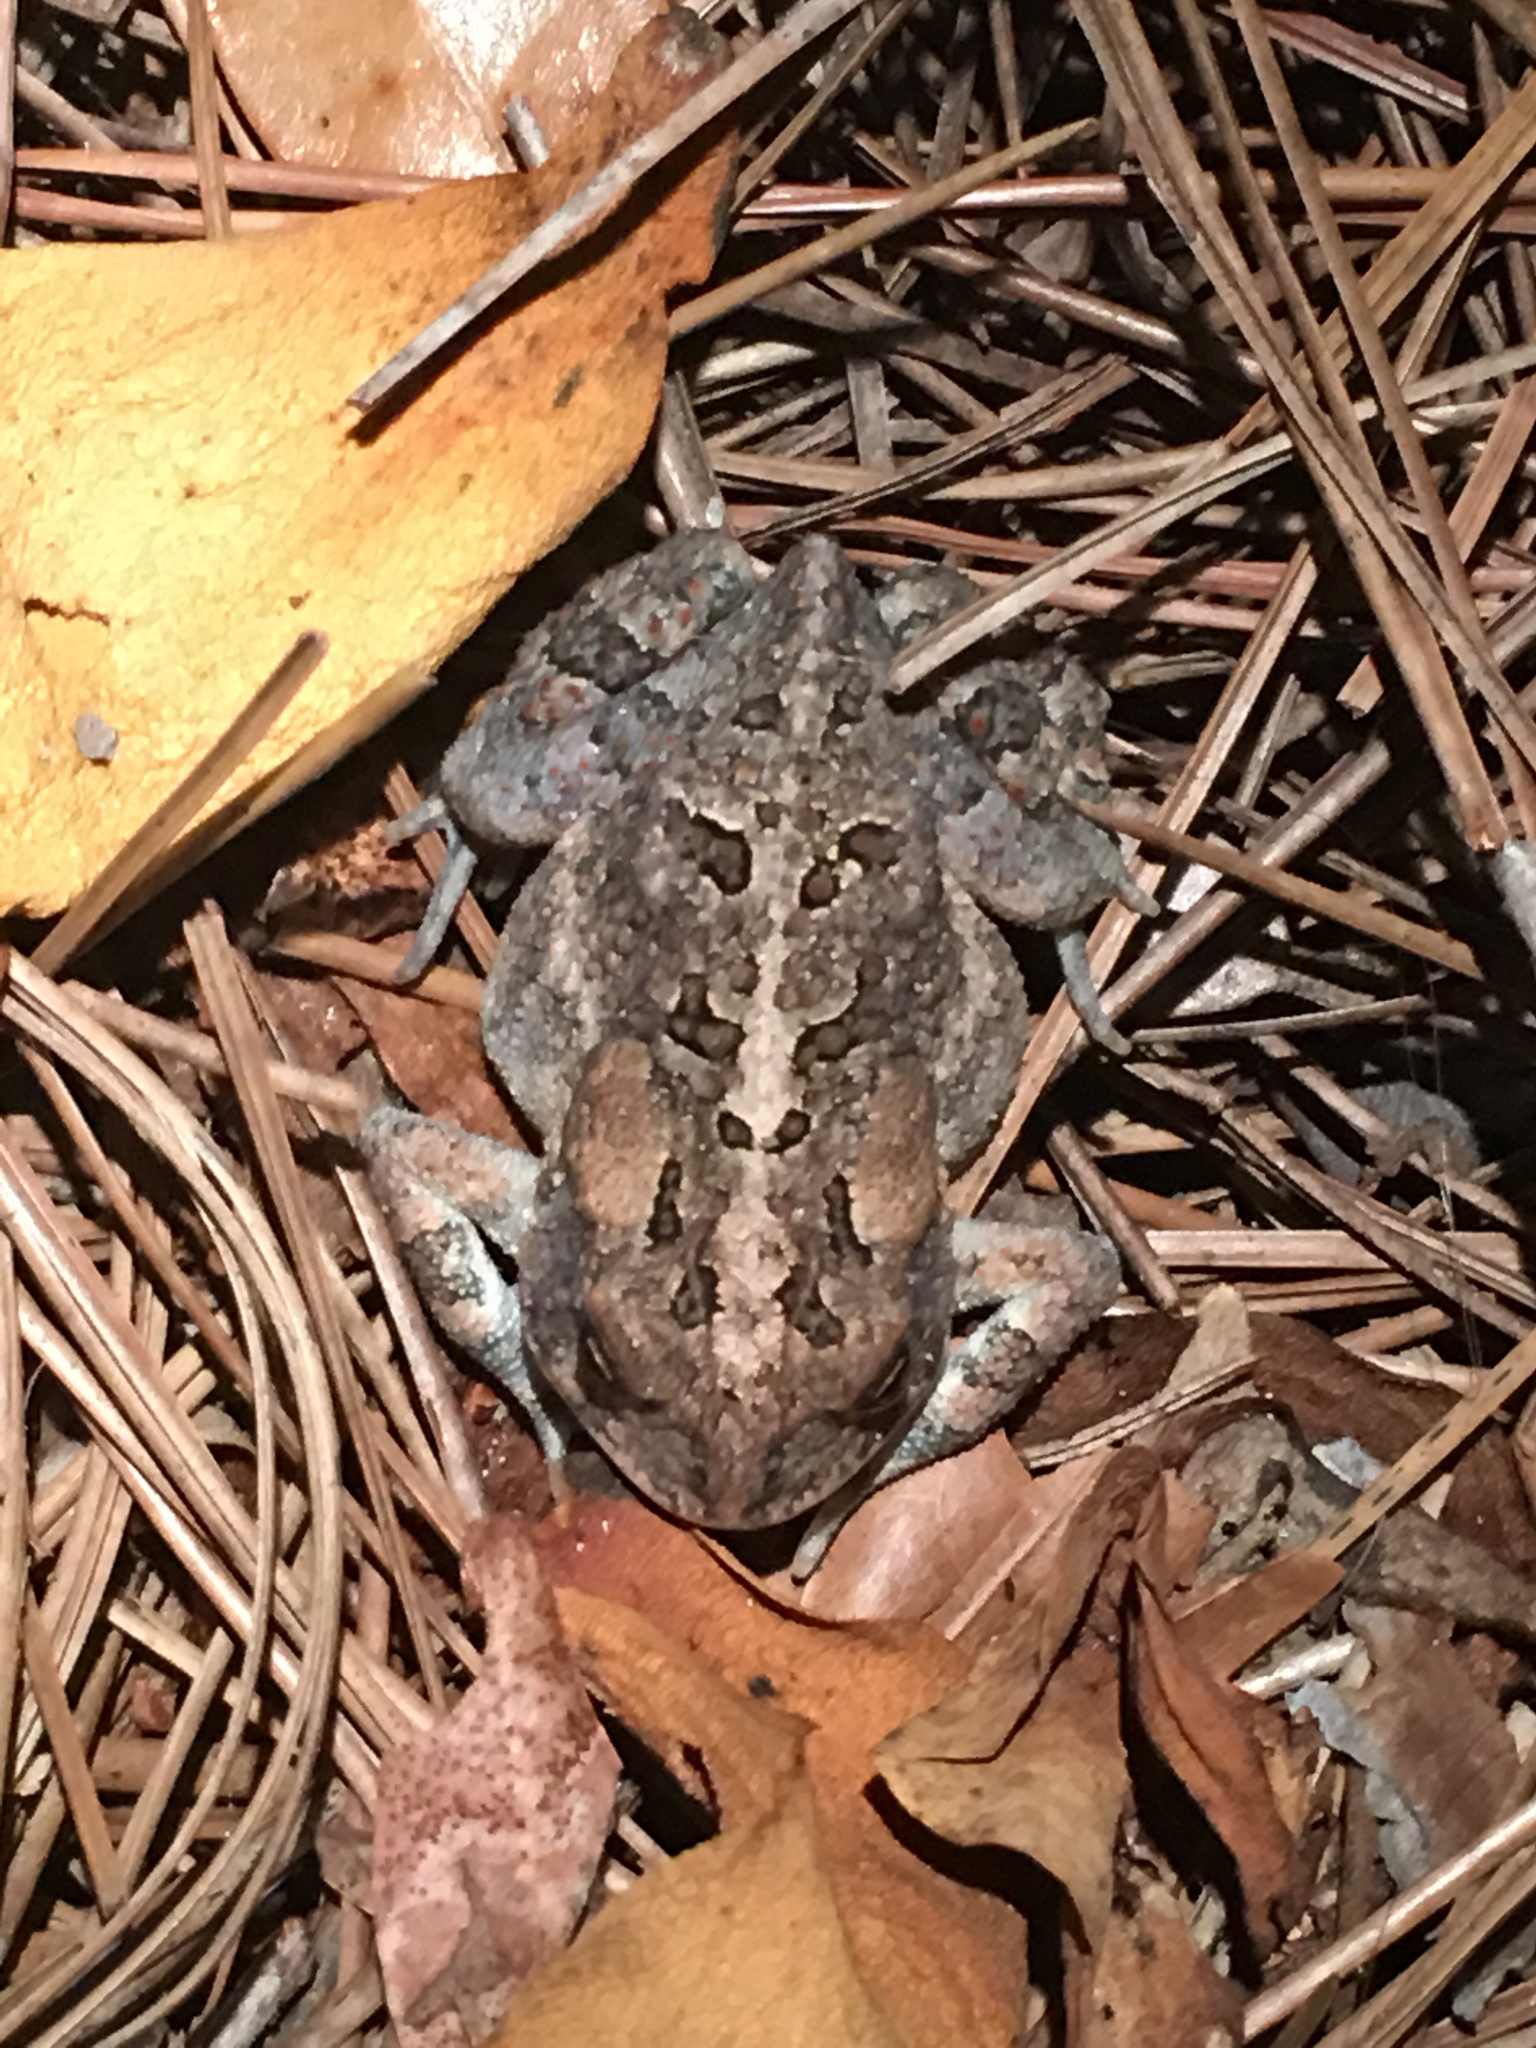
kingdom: Animalia
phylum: Chordata
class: Amphibia
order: Anura
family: Bufonidae
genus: Anaxyrus
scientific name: Anaxyrus terrestris
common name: Southern toad
